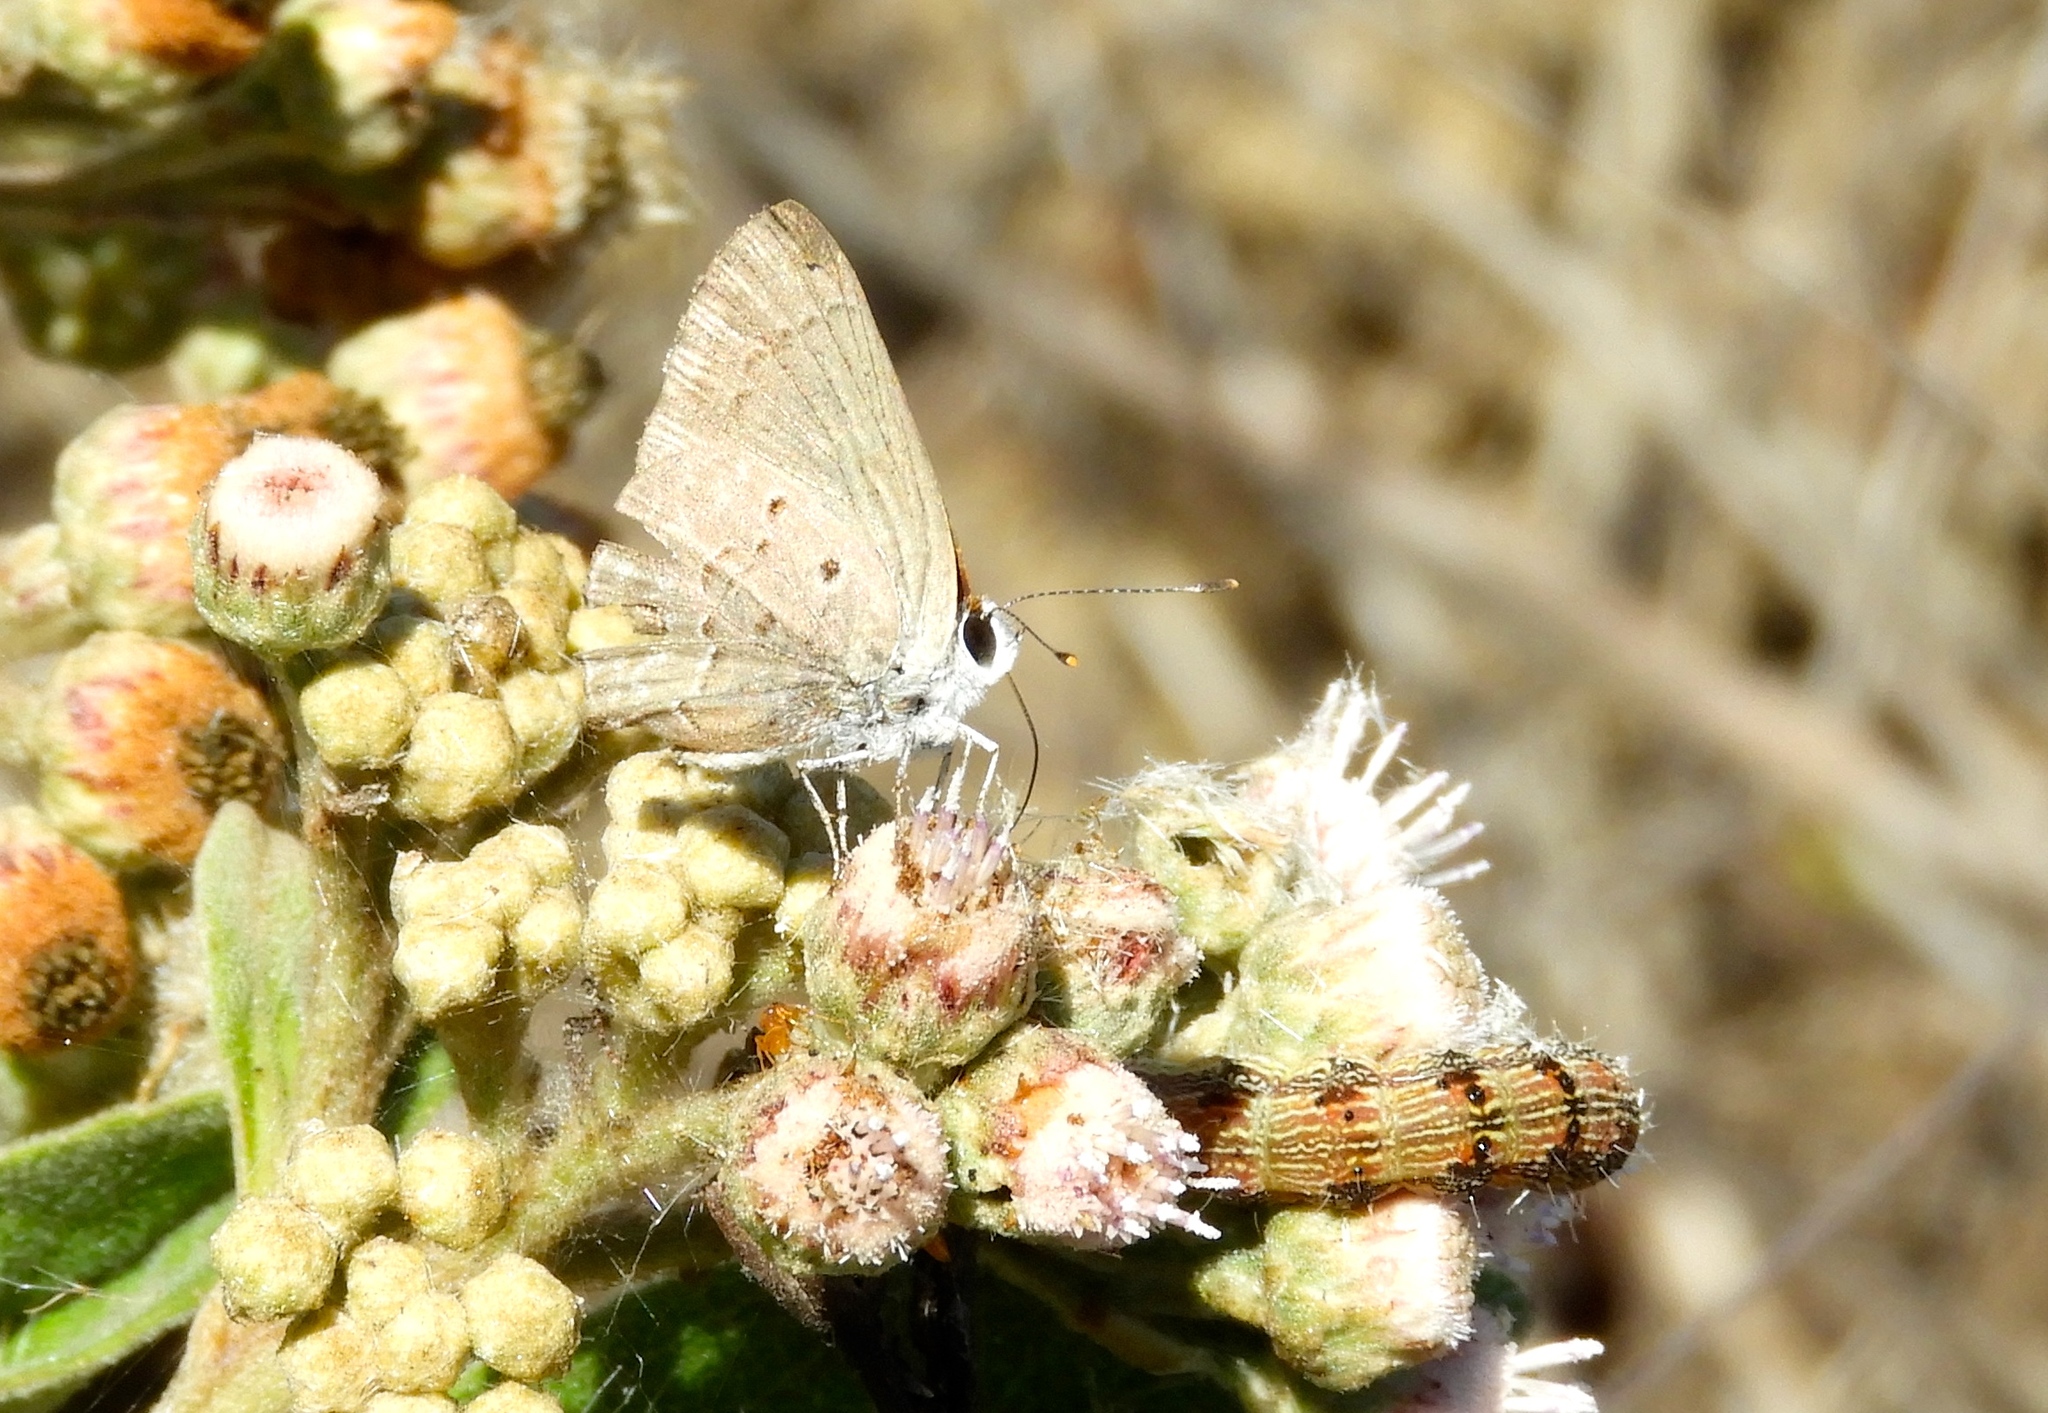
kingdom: Animalia
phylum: Arthropoda
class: Insecta
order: Lepidoptera
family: Lycaenidae
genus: Callicista
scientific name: Callicista columella
